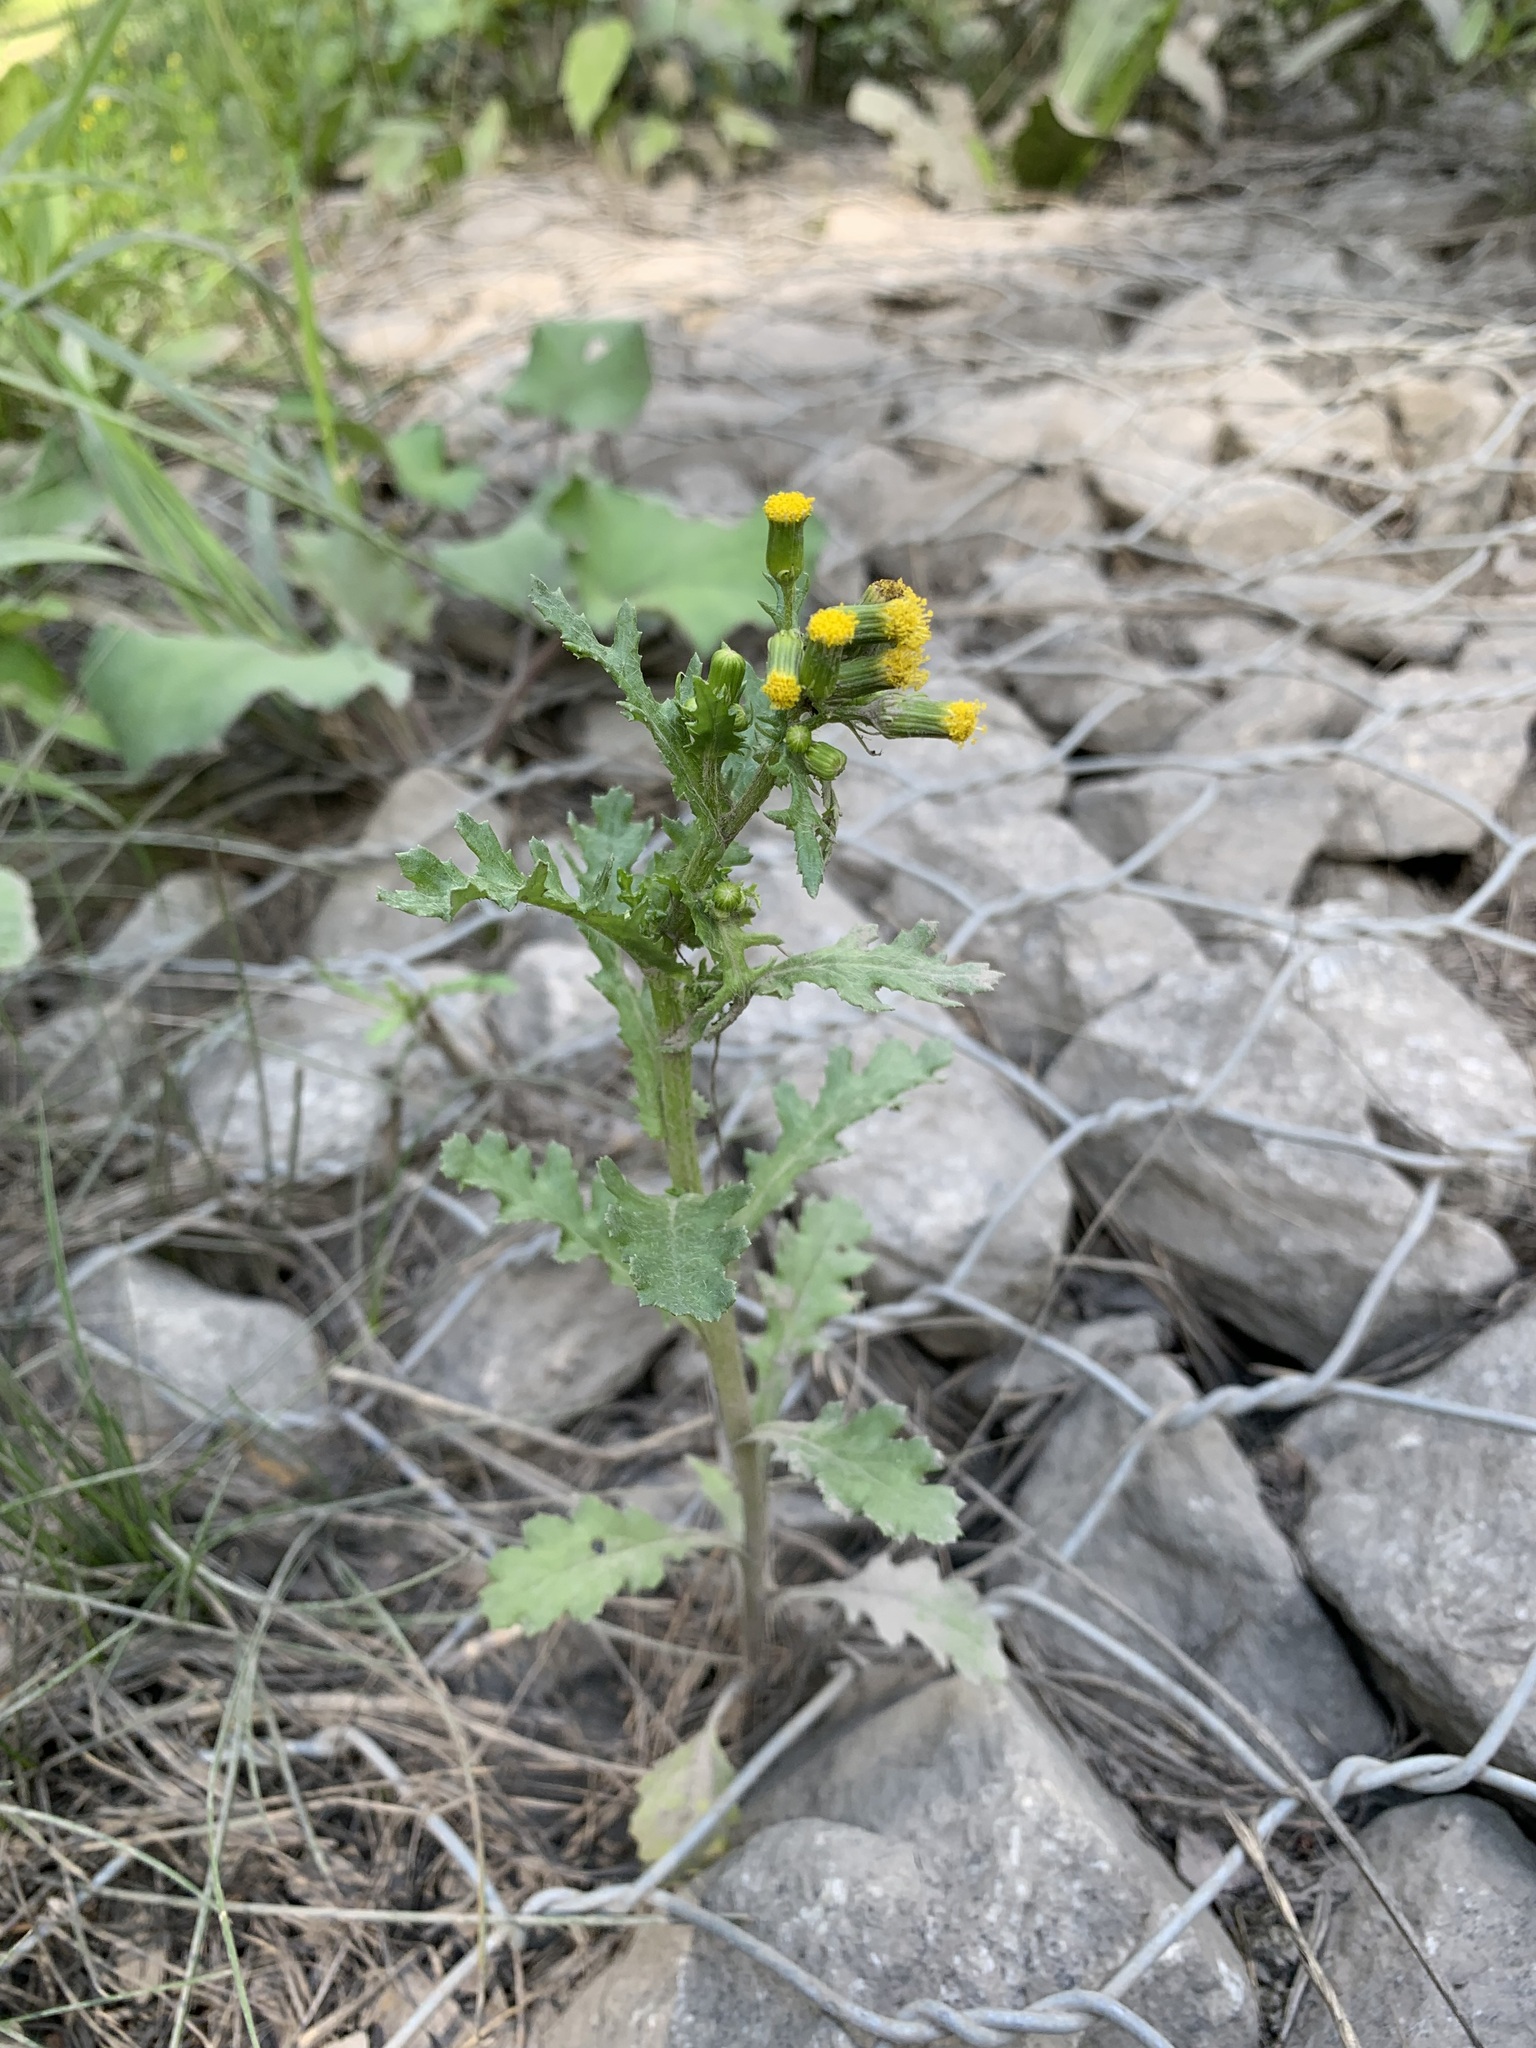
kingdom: Plantae
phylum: Tracheophyta
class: Magnoliopsida
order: Asterales
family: Asteraceae
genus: Senecio
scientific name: Senecio vulgaris
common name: Old-man-in-the-spring
